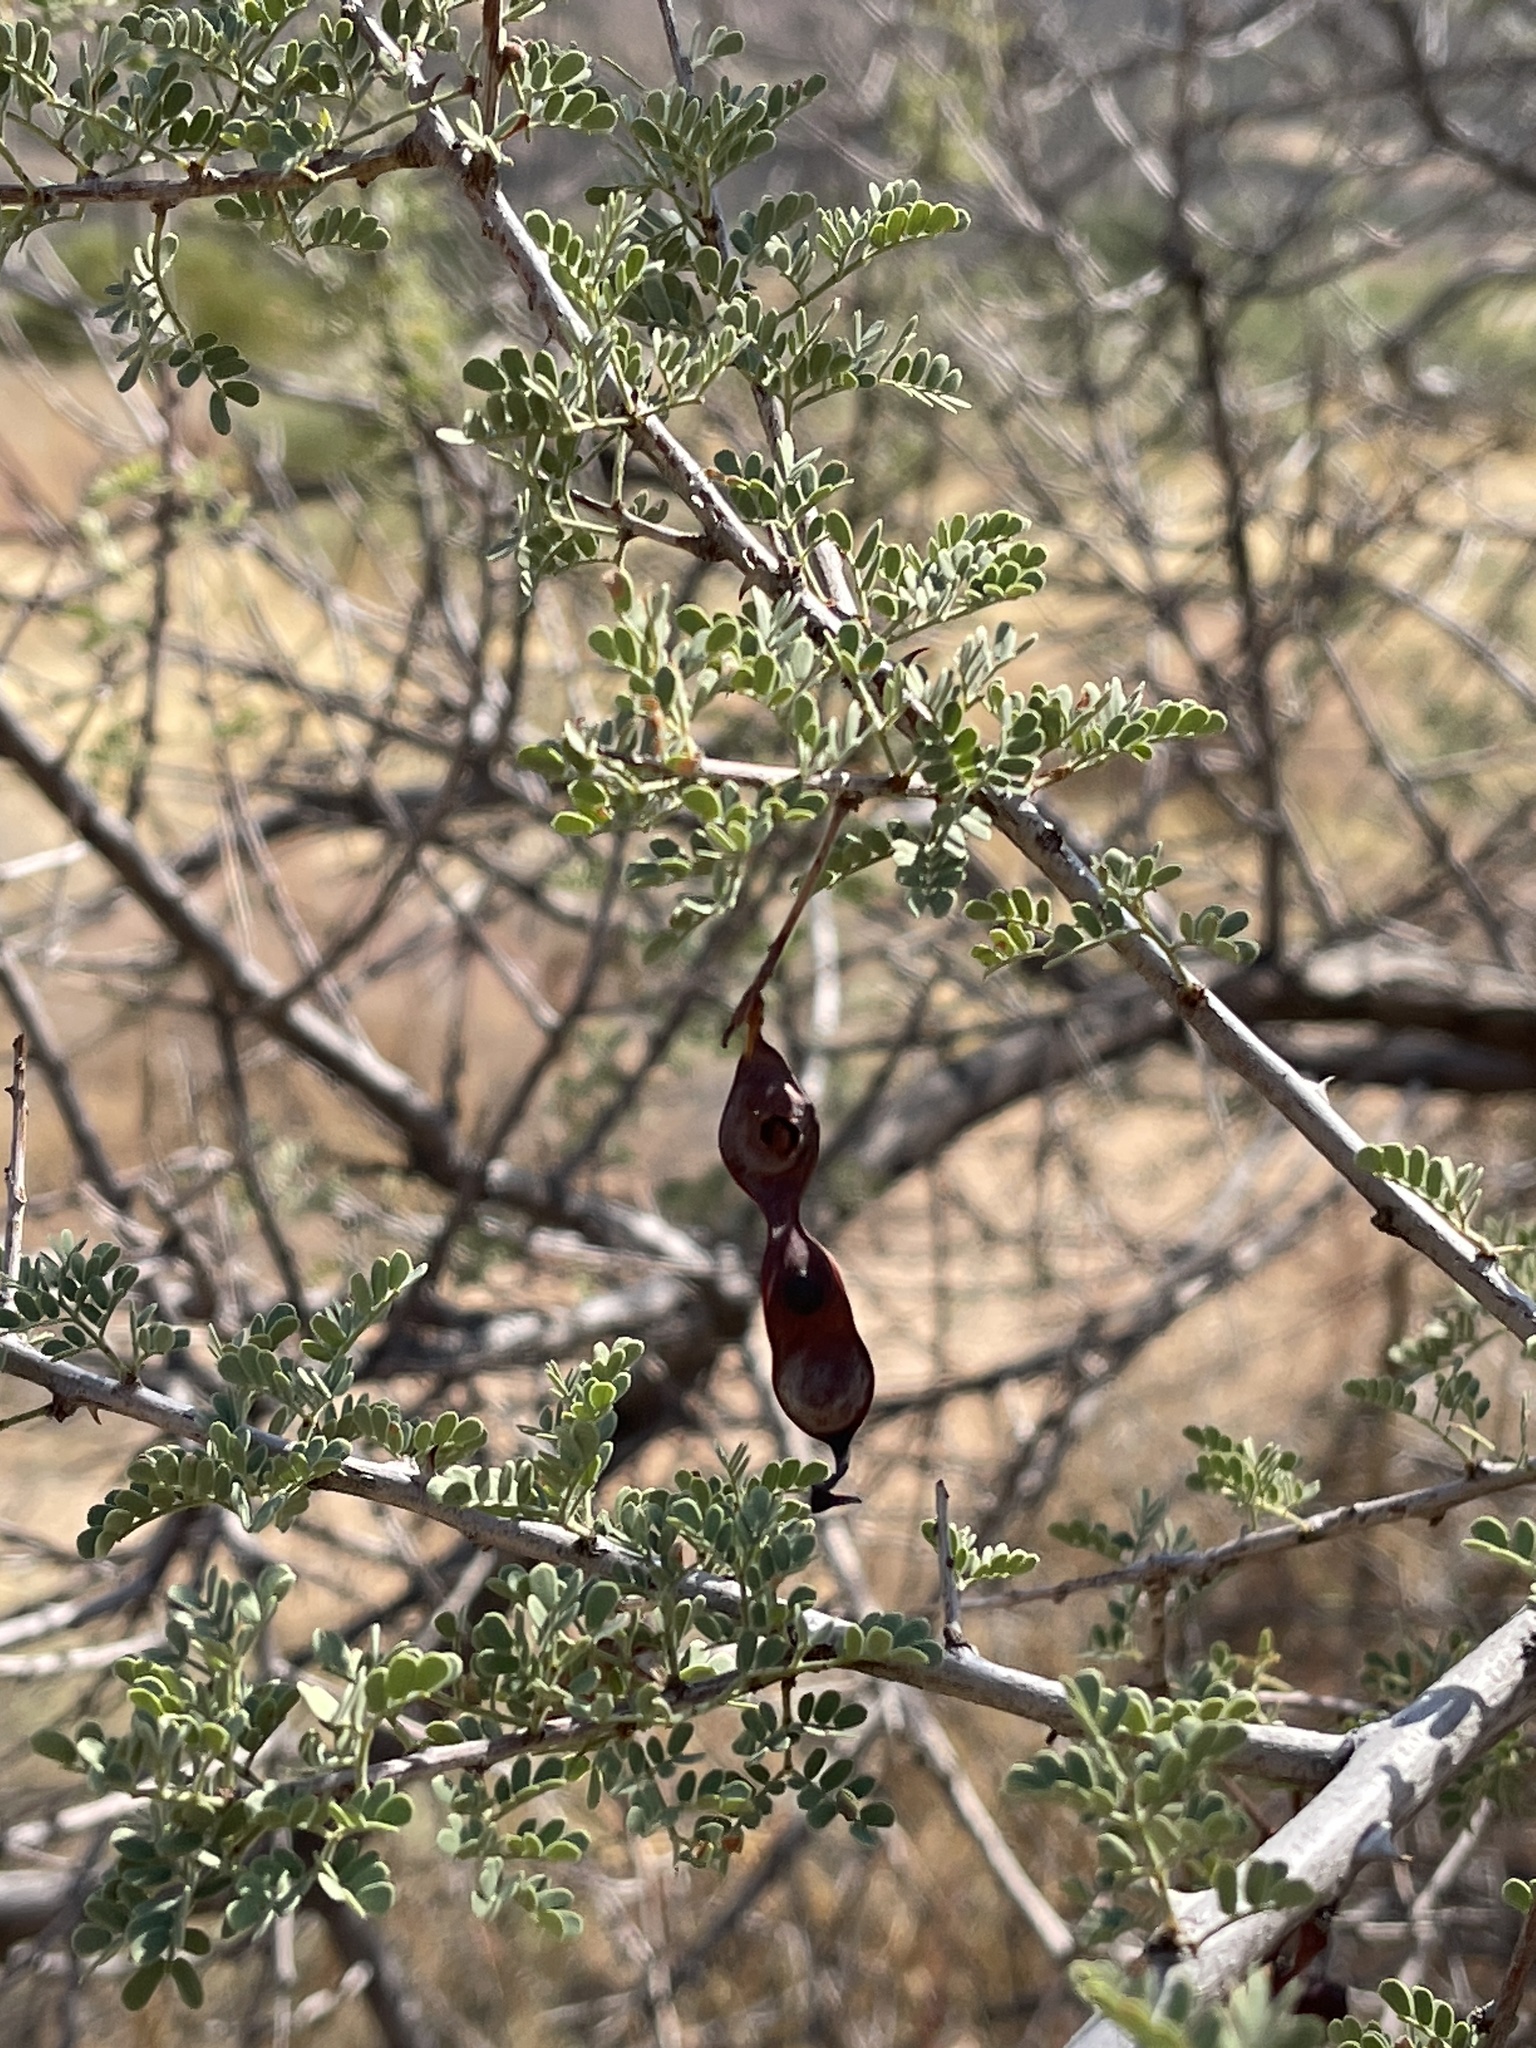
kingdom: Plantae
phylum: Tracheophyta
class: Magnoliopsida
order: Fabales
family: Fabaceae
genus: Senegalia
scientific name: Senegalia greggii
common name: Texas-mimosa
